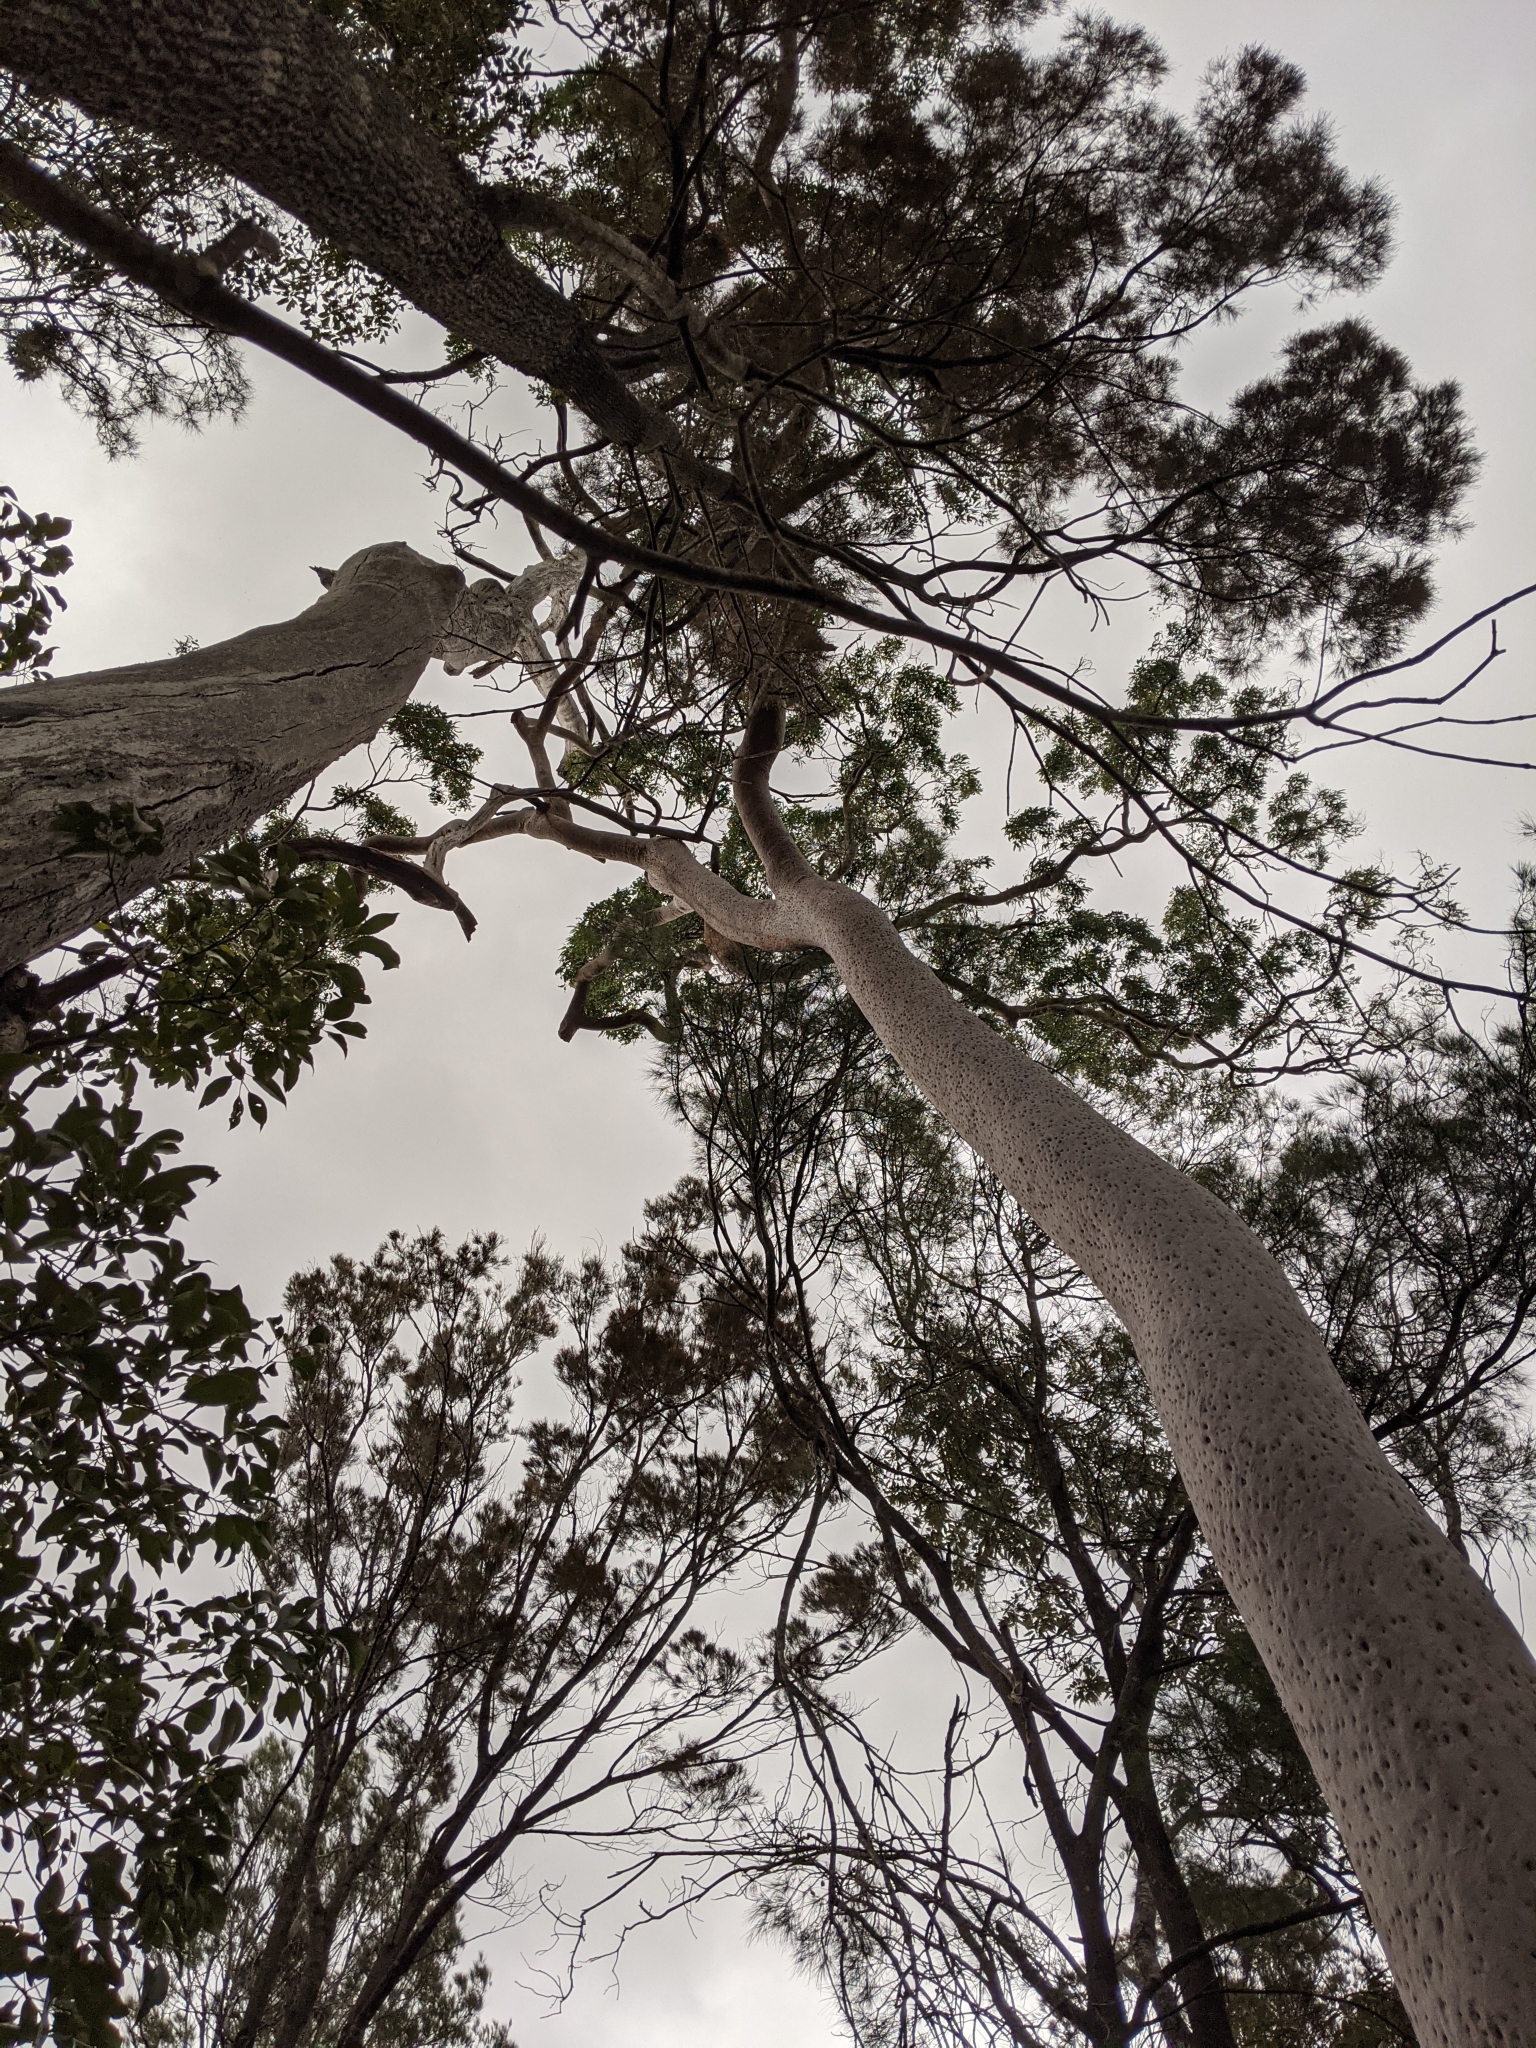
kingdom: Plantae
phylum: Tracheophyta
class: Magnoliopsida
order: Myrtales
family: Myrtaceae
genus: Angophora
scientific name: Angophora leiocarpa
